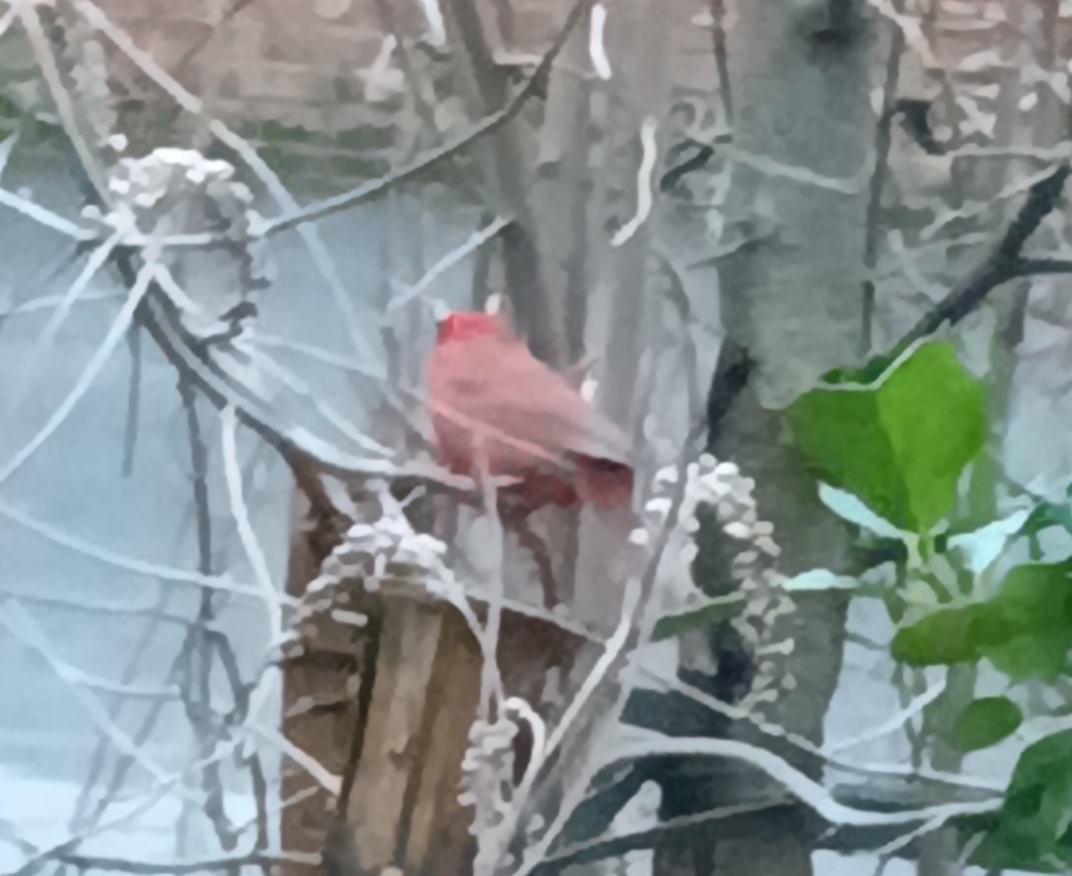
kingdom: Animalia
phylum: Chordata
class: Aves
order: Passeriformes
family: Cardinalidae
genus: Cardinalis
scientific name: Cardinalis cardinalis
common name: Northern cardinal
